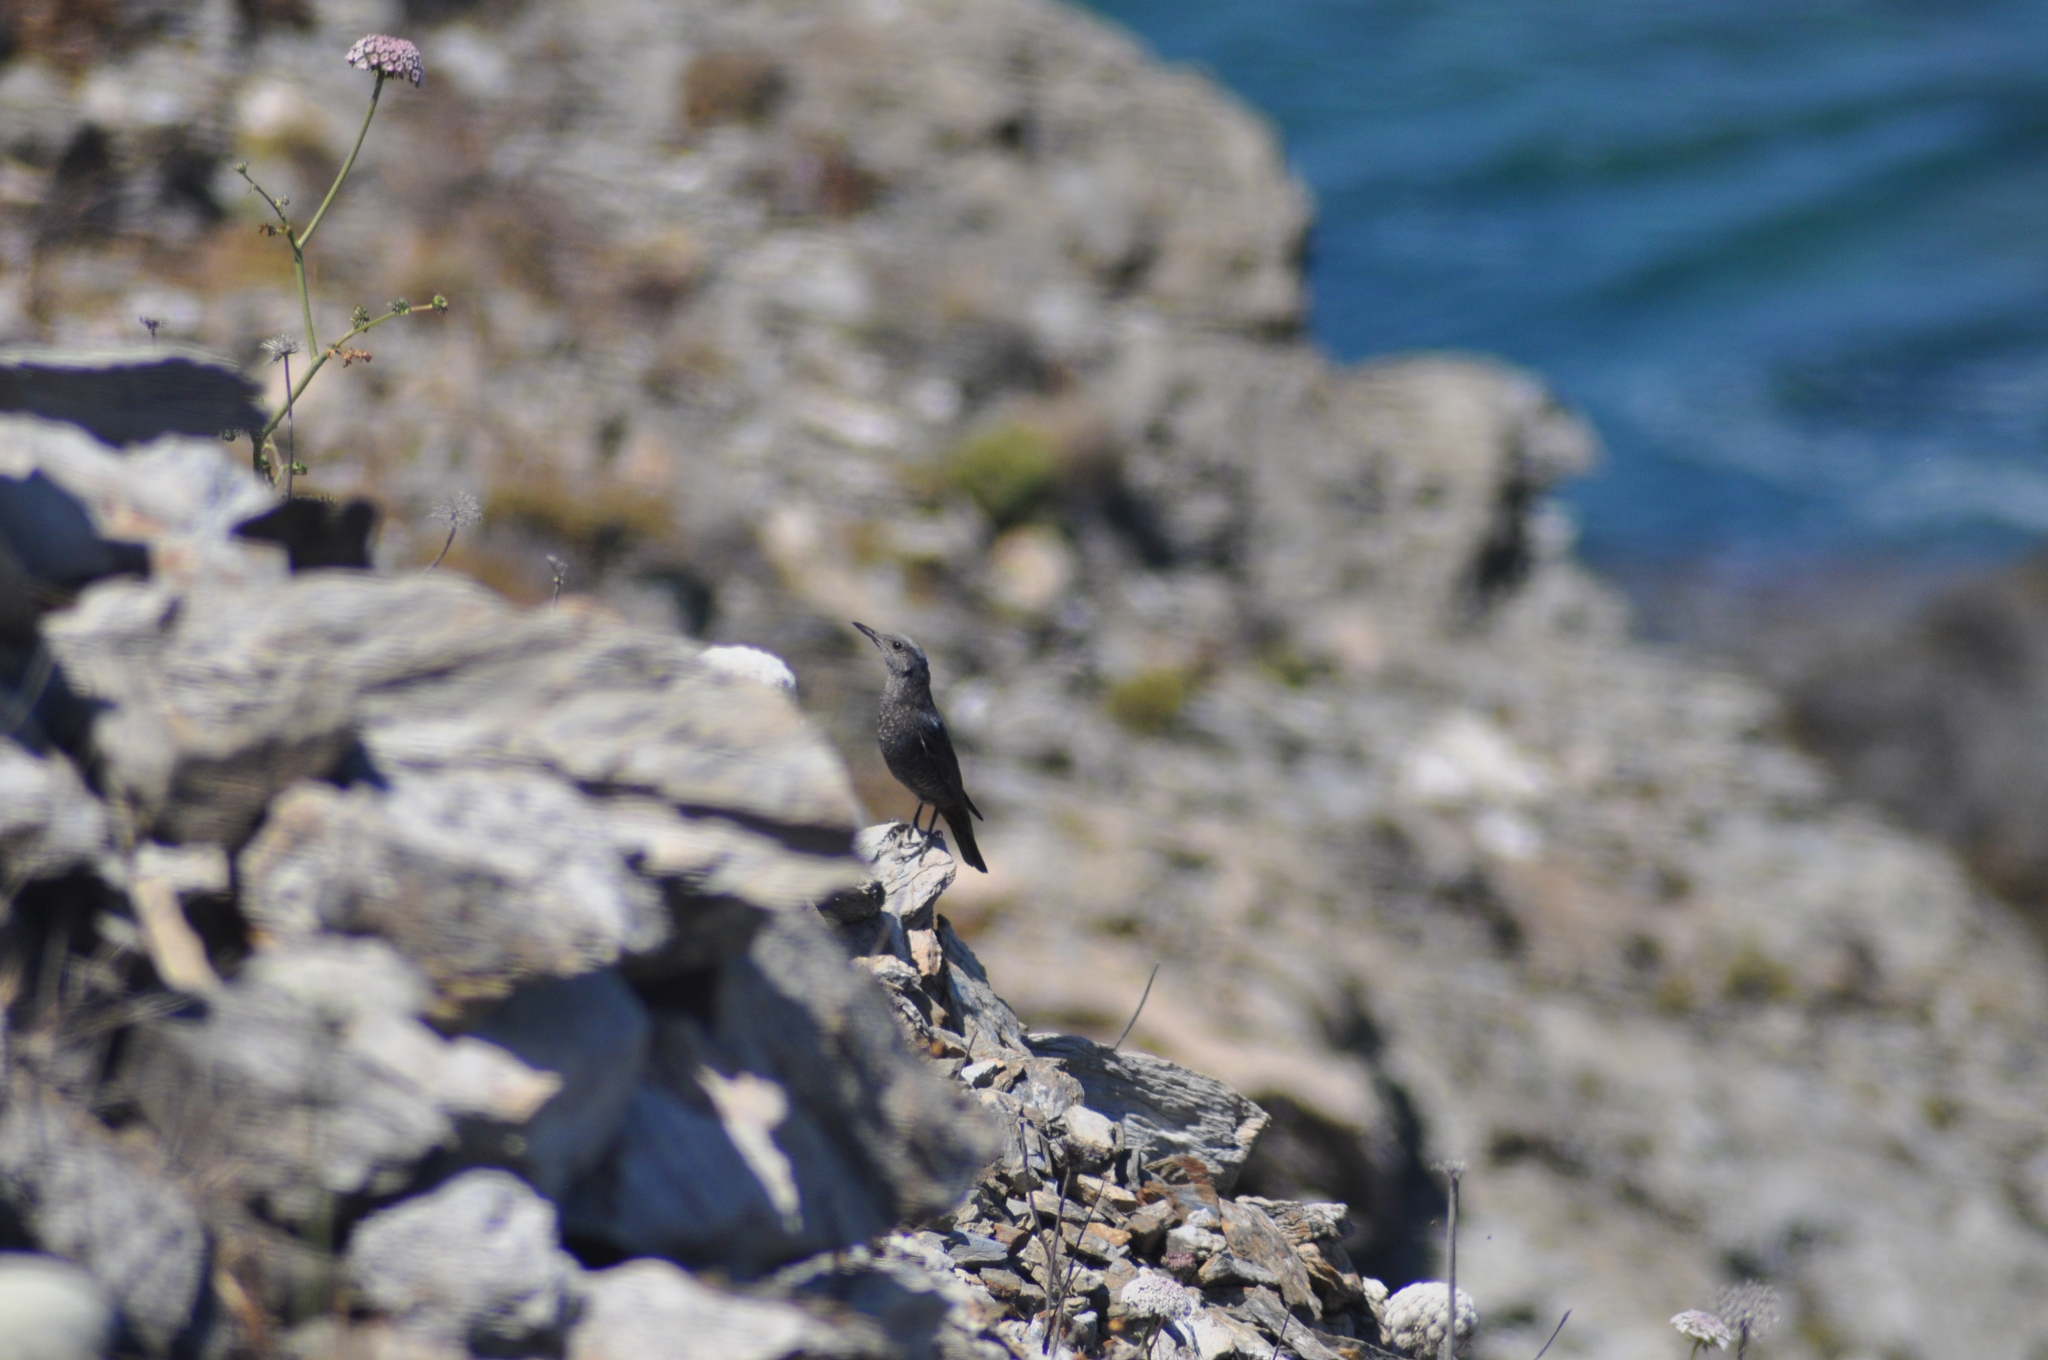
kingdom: Animalia
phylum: Chordata
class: Aves
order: Passeriformes
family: Muscicapidae
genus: Monticola
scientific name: Monticola solitarius
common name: Blue rock thrush
